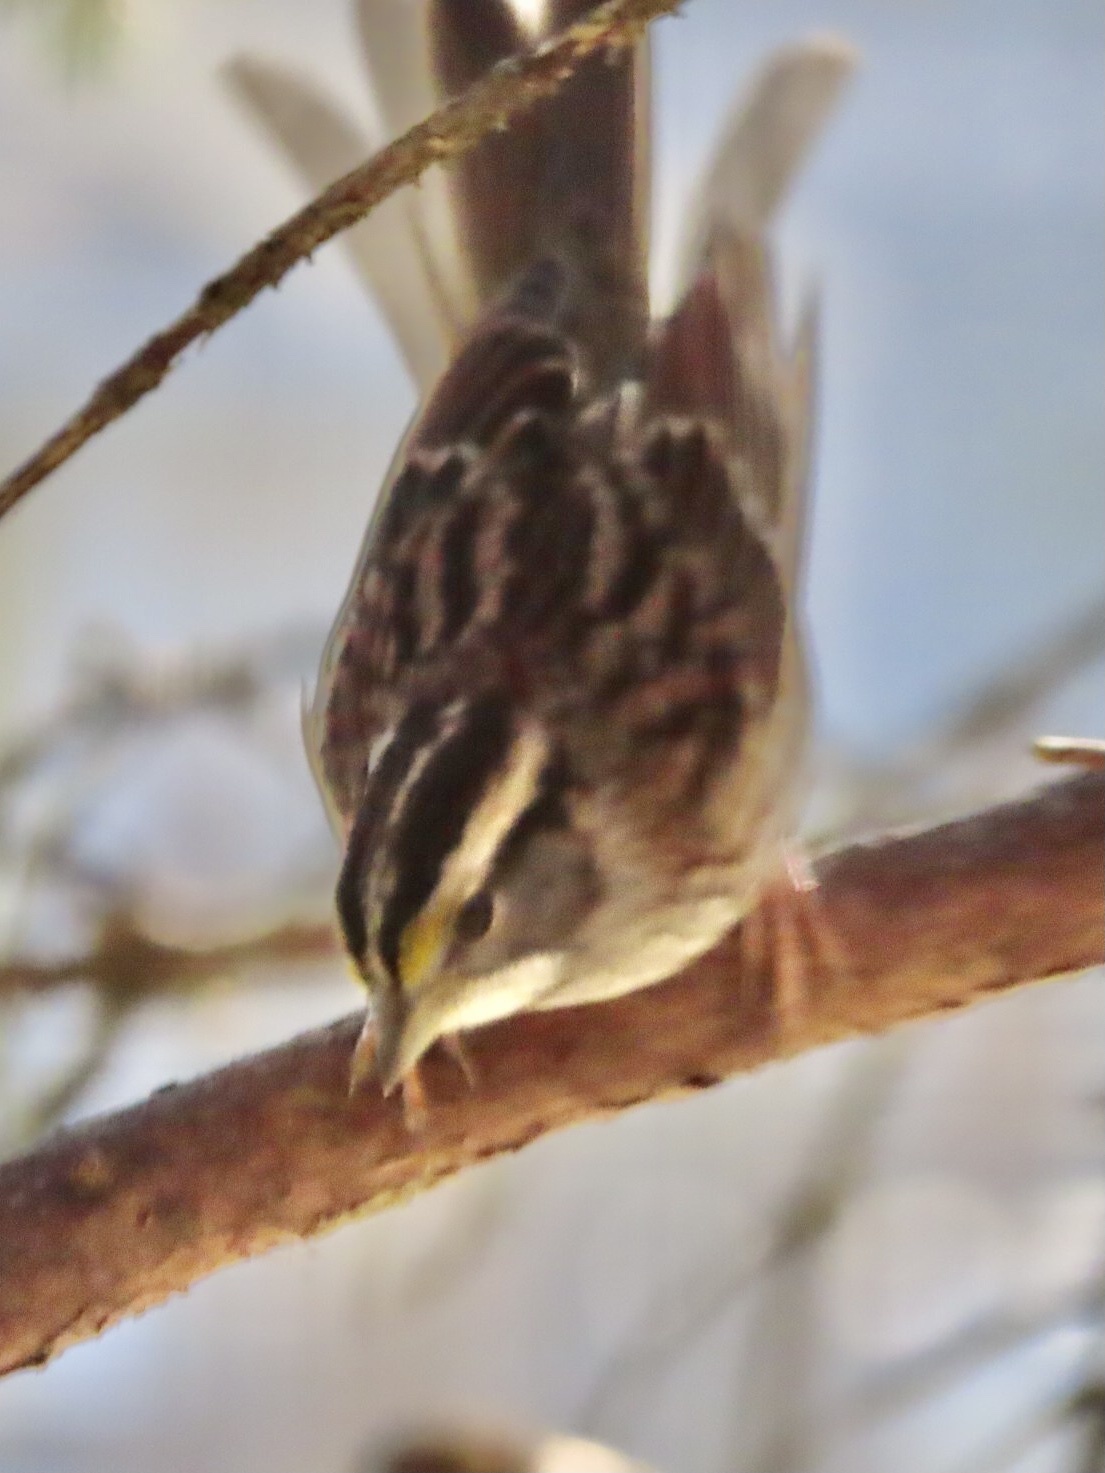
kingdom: Animalia
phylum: Chordata
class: Aves
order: Passeriformes
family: Passerellidae
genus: Zonotrichia
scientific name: Zonotrichia albicollis
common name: White-throated sparrow
